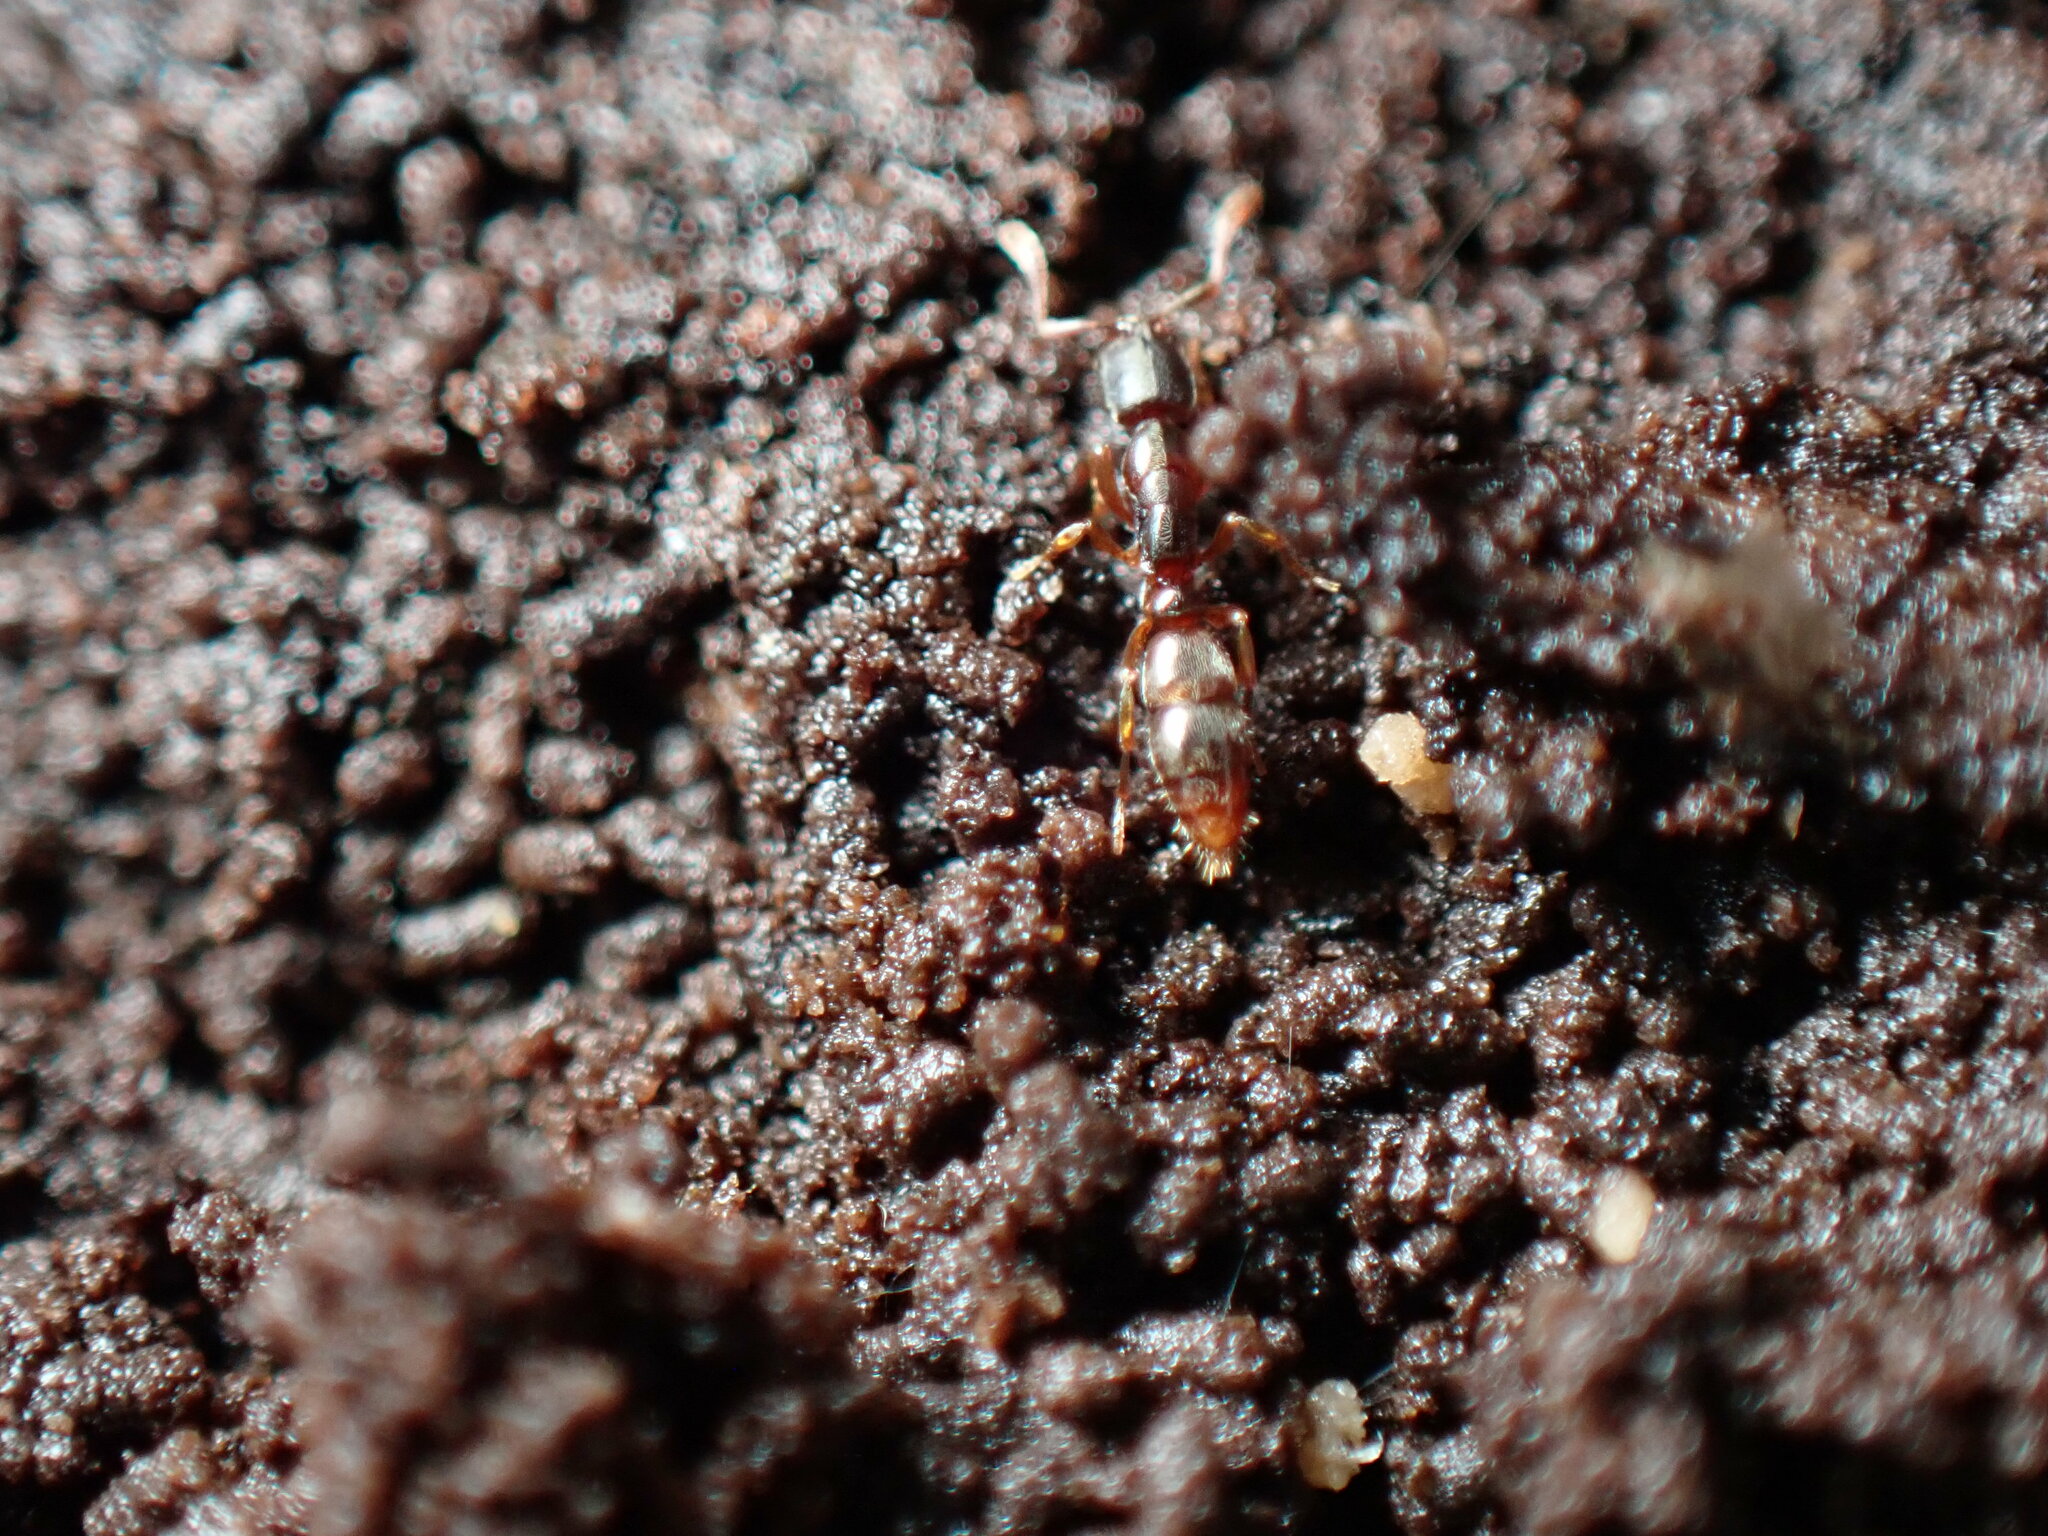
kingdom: Animalia
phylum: Arthropoda
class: Insecta
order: Hymenoptera
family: Formicidae
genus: Ponera
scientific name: Ponera pennsylvanica
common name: Pennsylvania ponera
